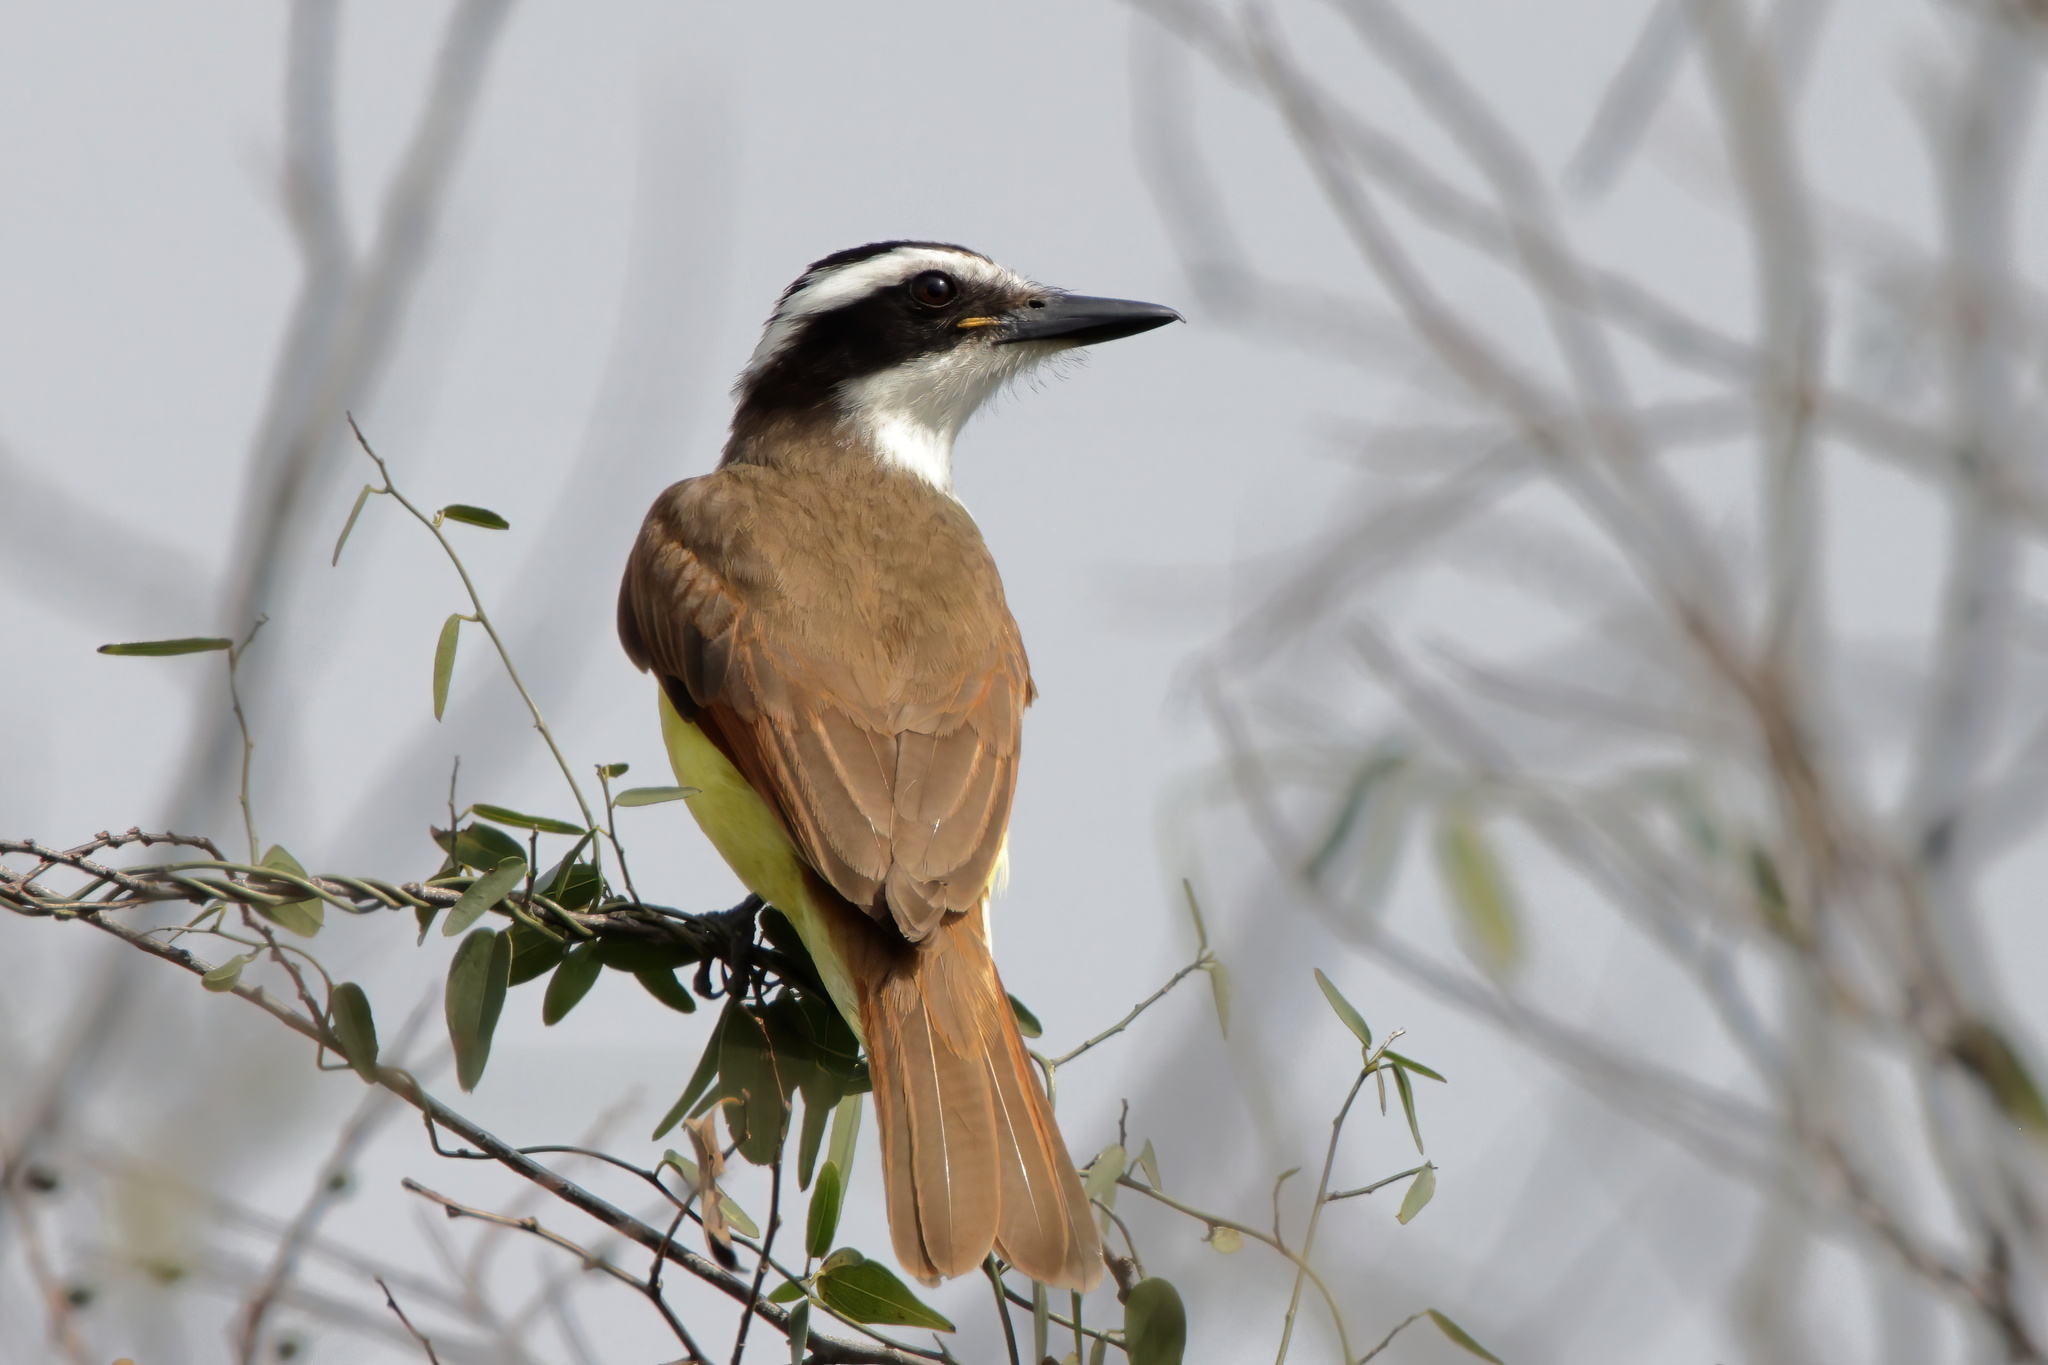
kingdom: Animalia
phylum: Chordata
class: Aves
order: Passeriformes
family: Tyrannidae
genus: Pitangus
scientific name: Pitangus sulphuratus
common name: Great kiskadee
